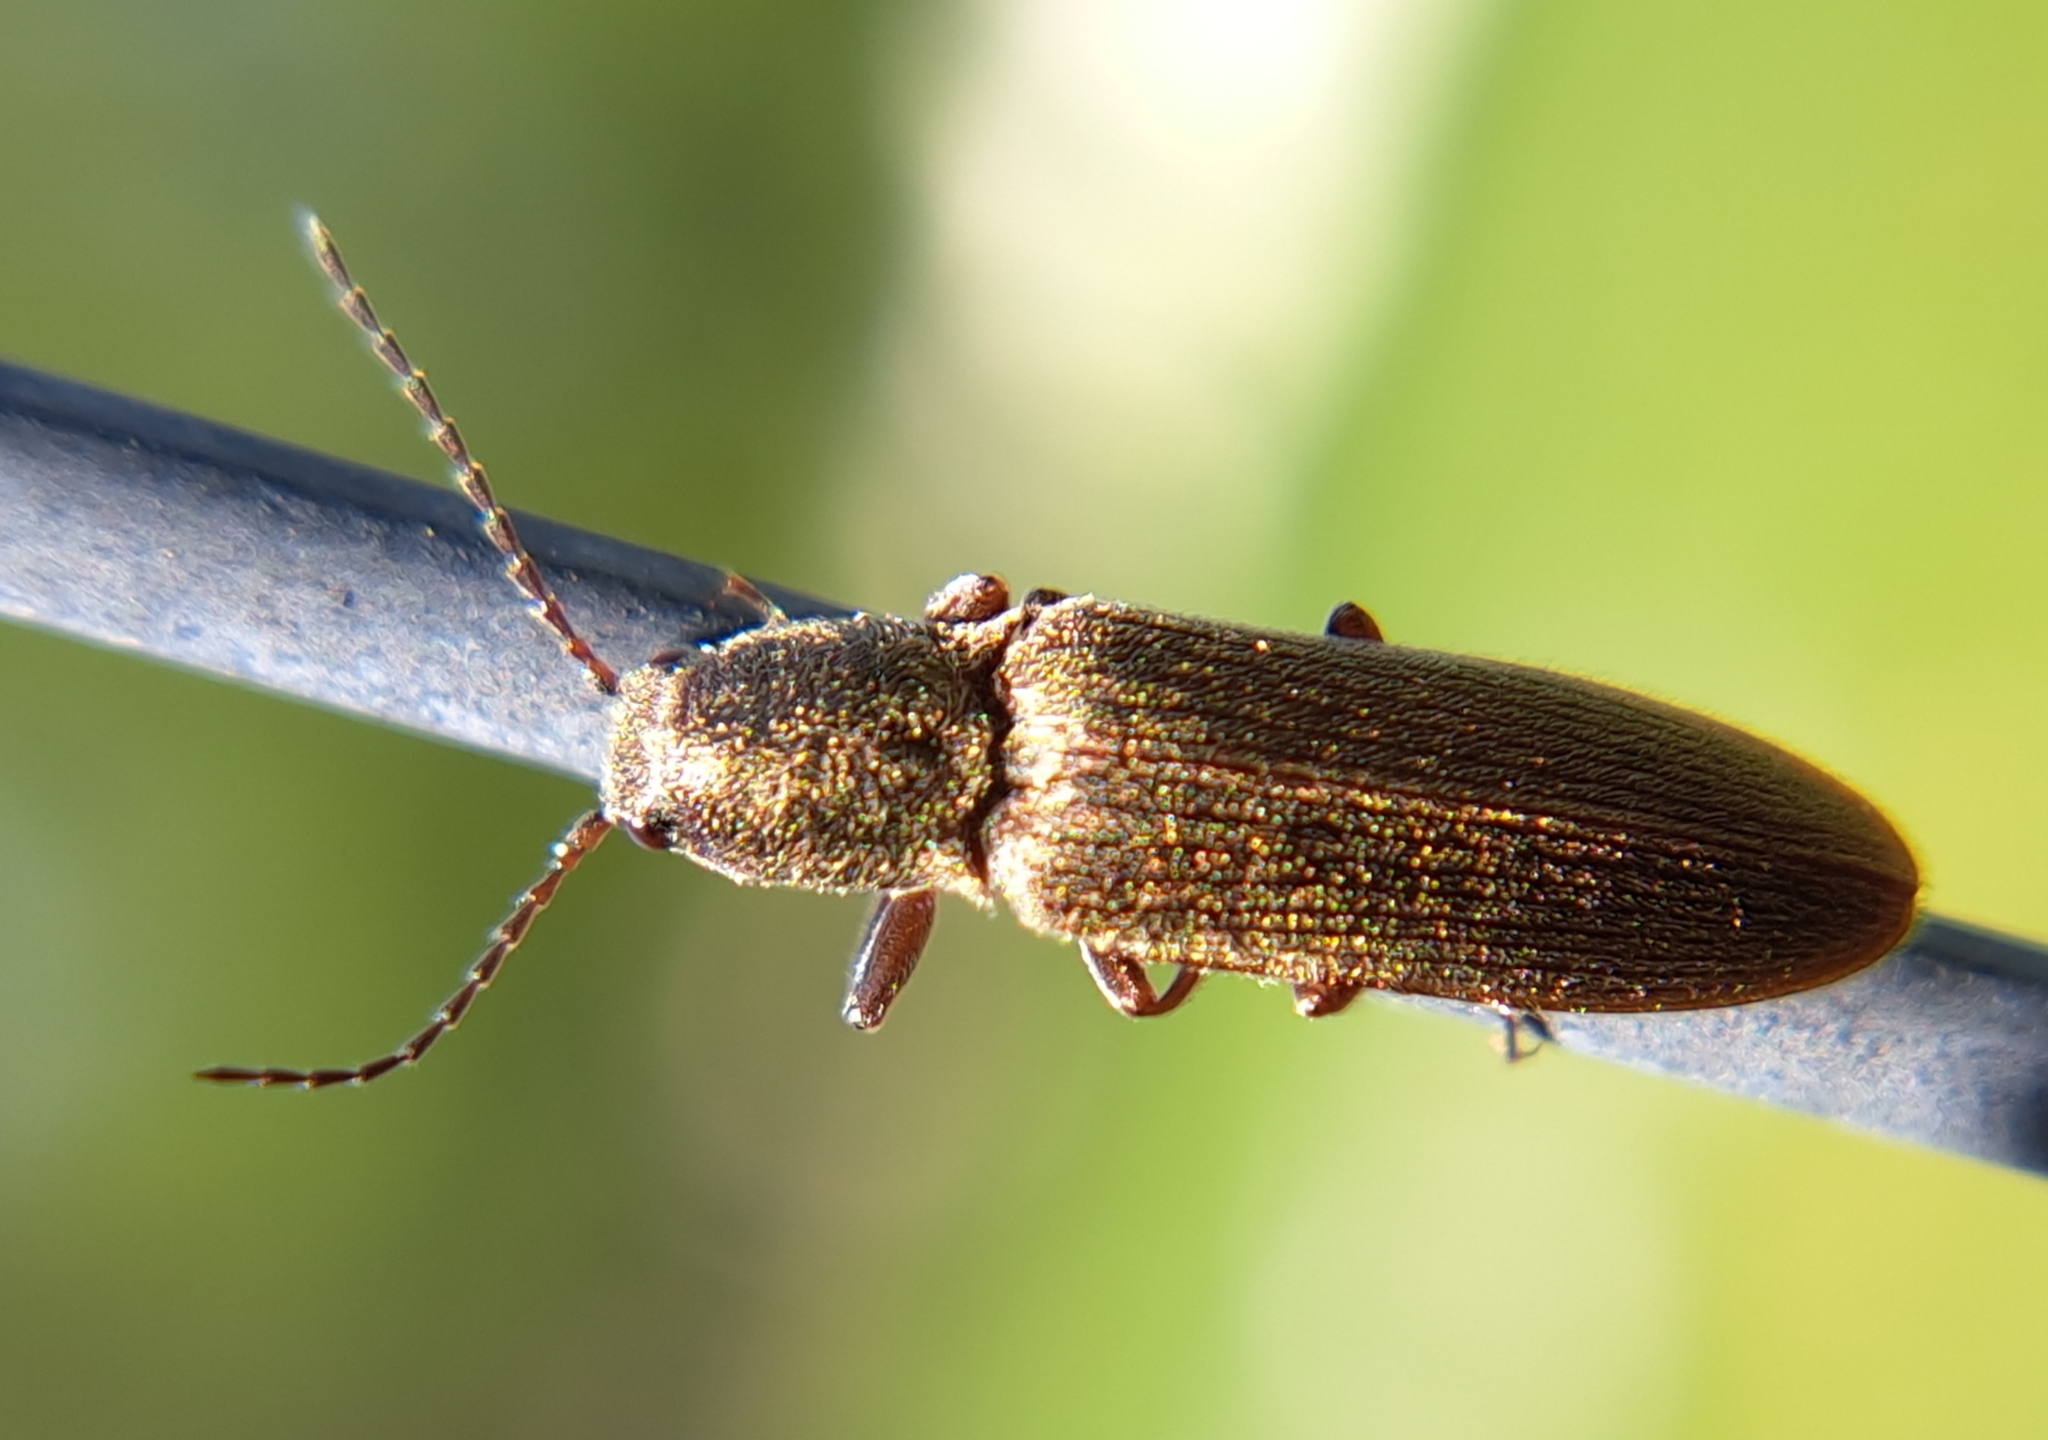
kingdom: Animalia
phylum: Arthropoda
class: Insecta
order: Coleoptera
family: Elateridae
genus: Sylvanelater
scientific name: Sylvanelater cylindriformis
